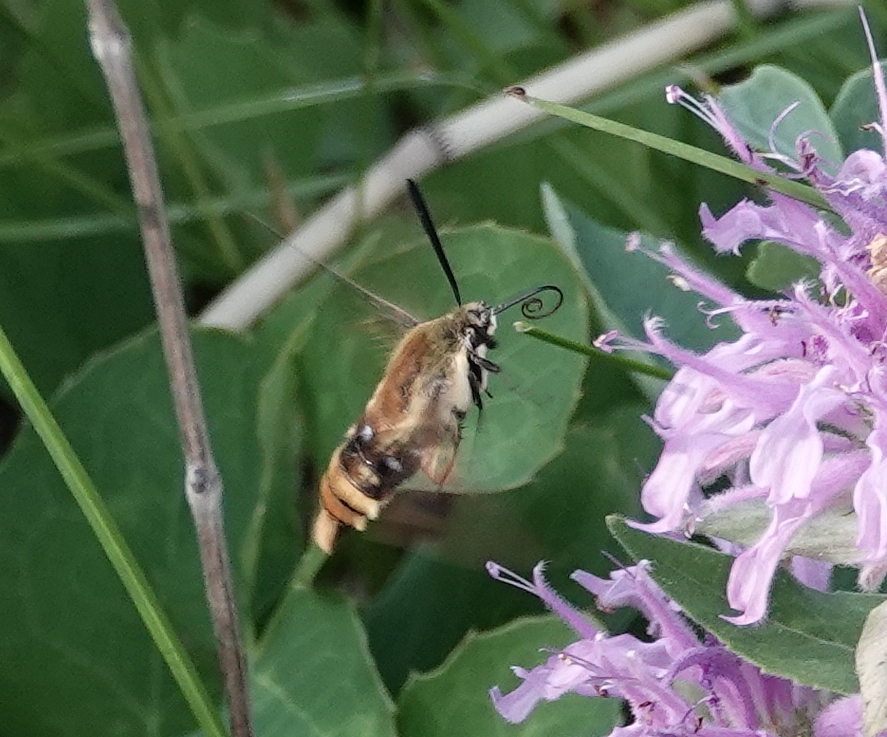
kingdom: Animalia
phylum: Arthropoda
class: Insecta
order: Lepidoptera
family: Sphingidae
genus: Hemaris
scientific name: Hemaris diffinis
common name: Bumblebee moth
